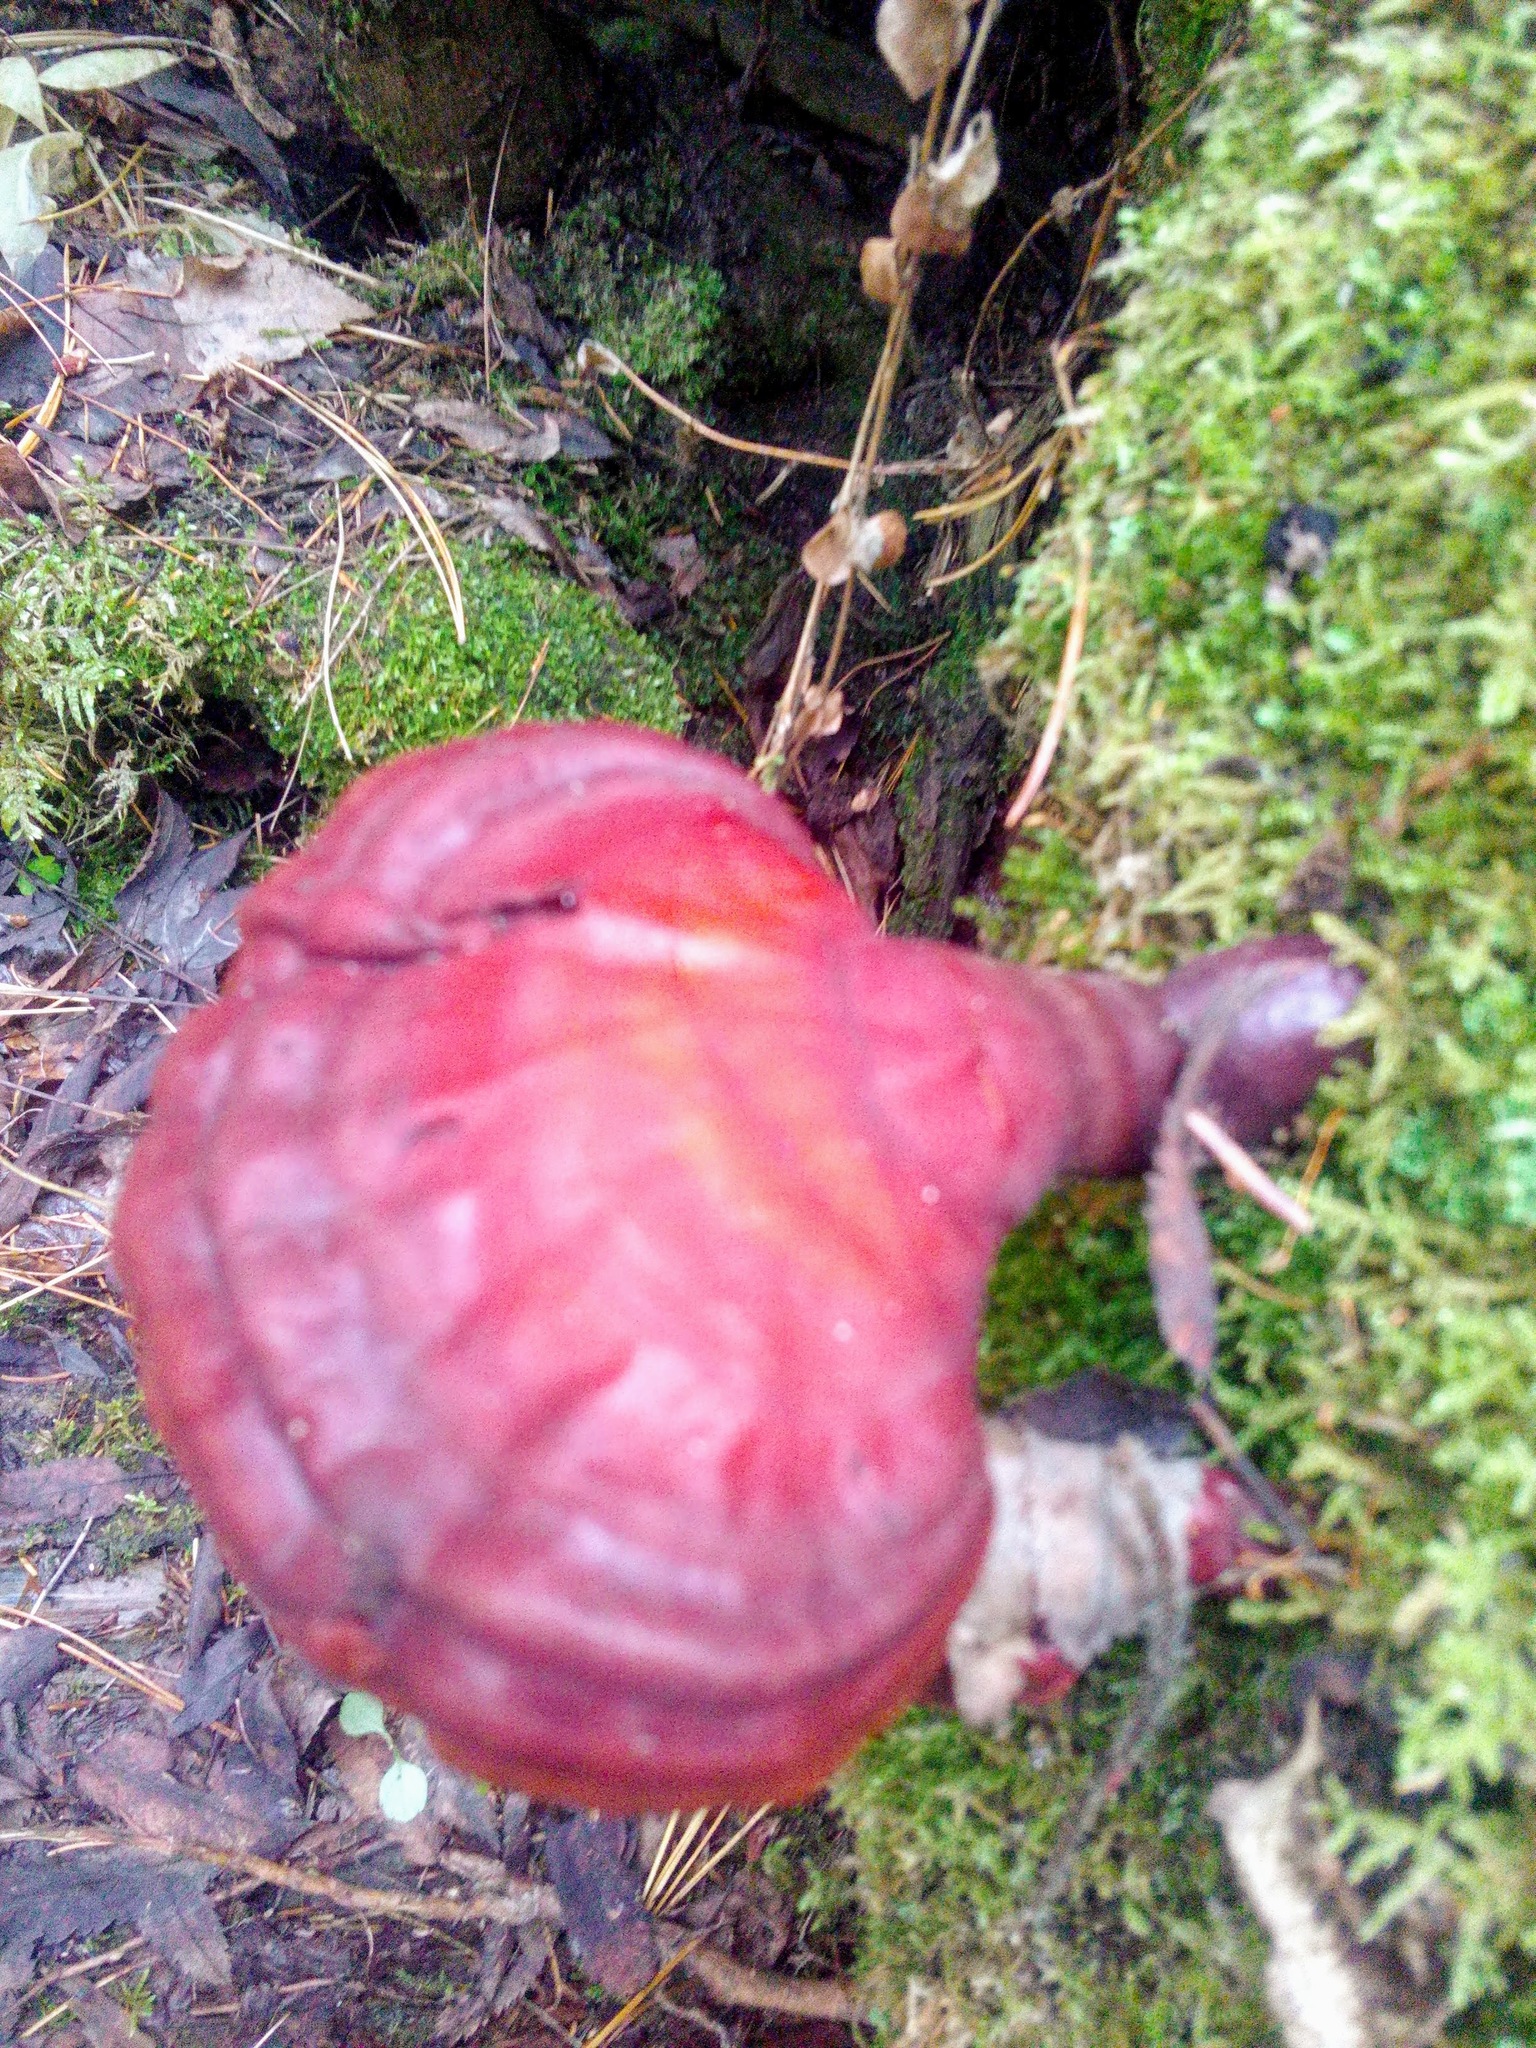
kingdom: Fungi
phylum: Basidiomycota
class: Agaricomycetes
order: Polyporales
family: Polyporaceae
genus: Ganoderma
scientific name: Ganoderma lucidum
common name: Lacquered bracket
